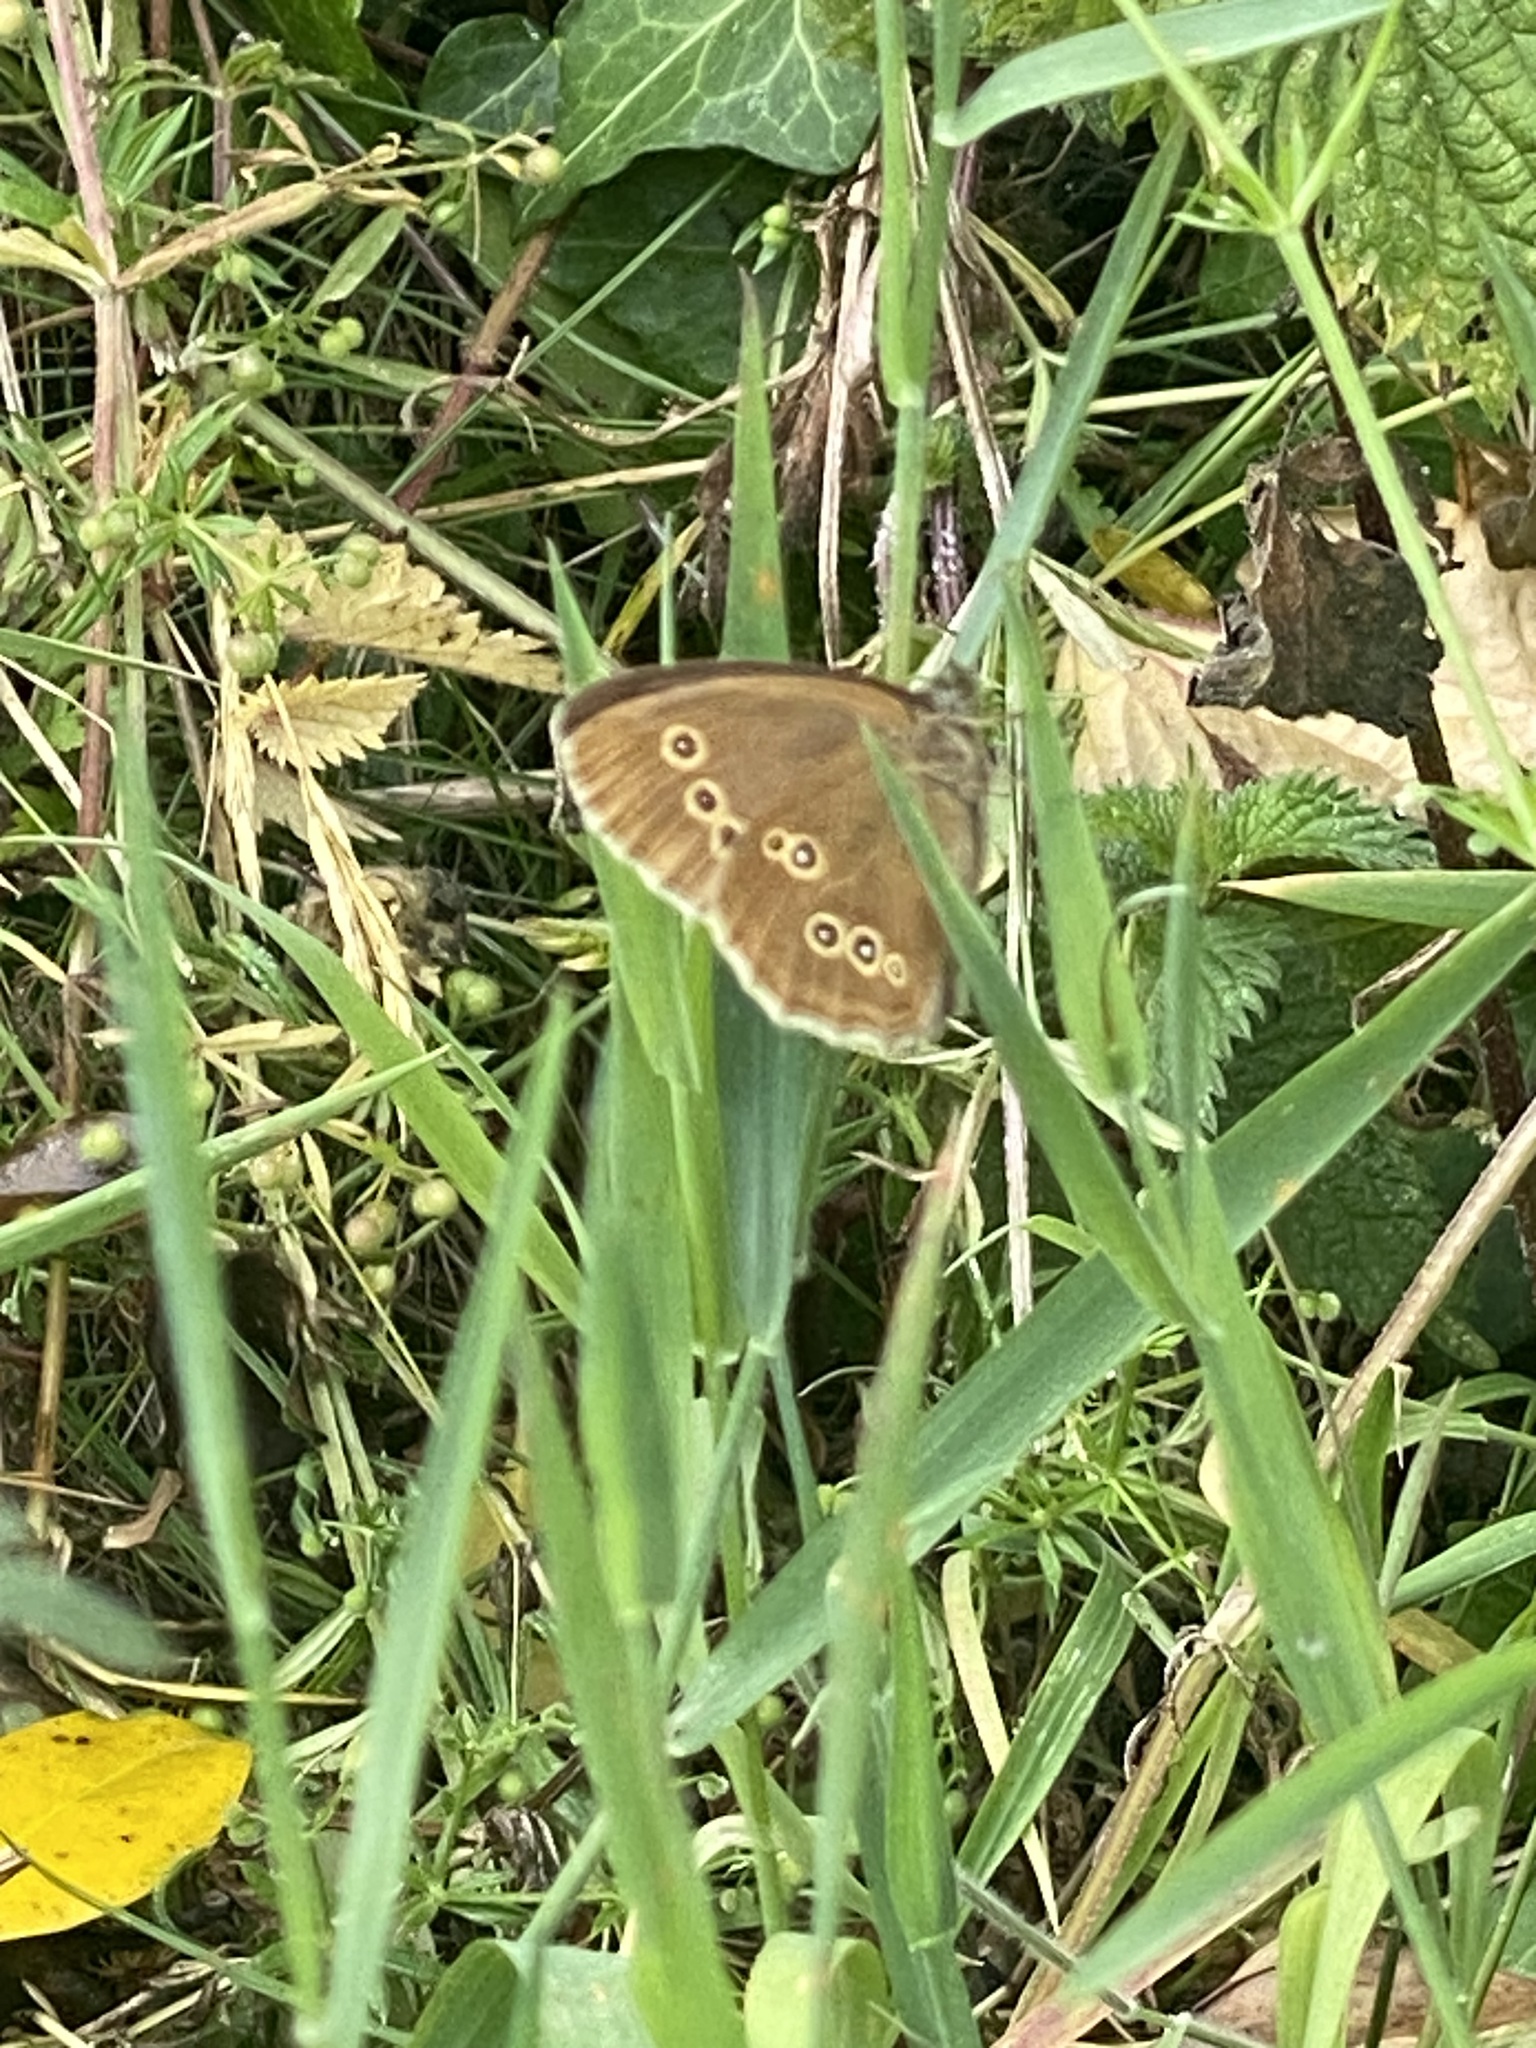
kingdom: Animalia
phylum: Arthropoda
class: Insecta
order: Lepidoptera
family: Nymphalidae
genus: Aphantopus
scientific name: Aphantopus hyperantus
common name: Ringlet
